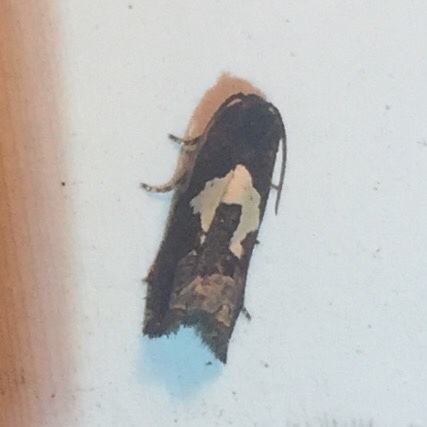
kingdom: Animalia
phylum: Arthropoda
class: Insecta
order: Lepidoptera
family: Tortricidae
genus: Epiblema
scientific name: Epiblema otiosana
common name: Bidens borer moth
